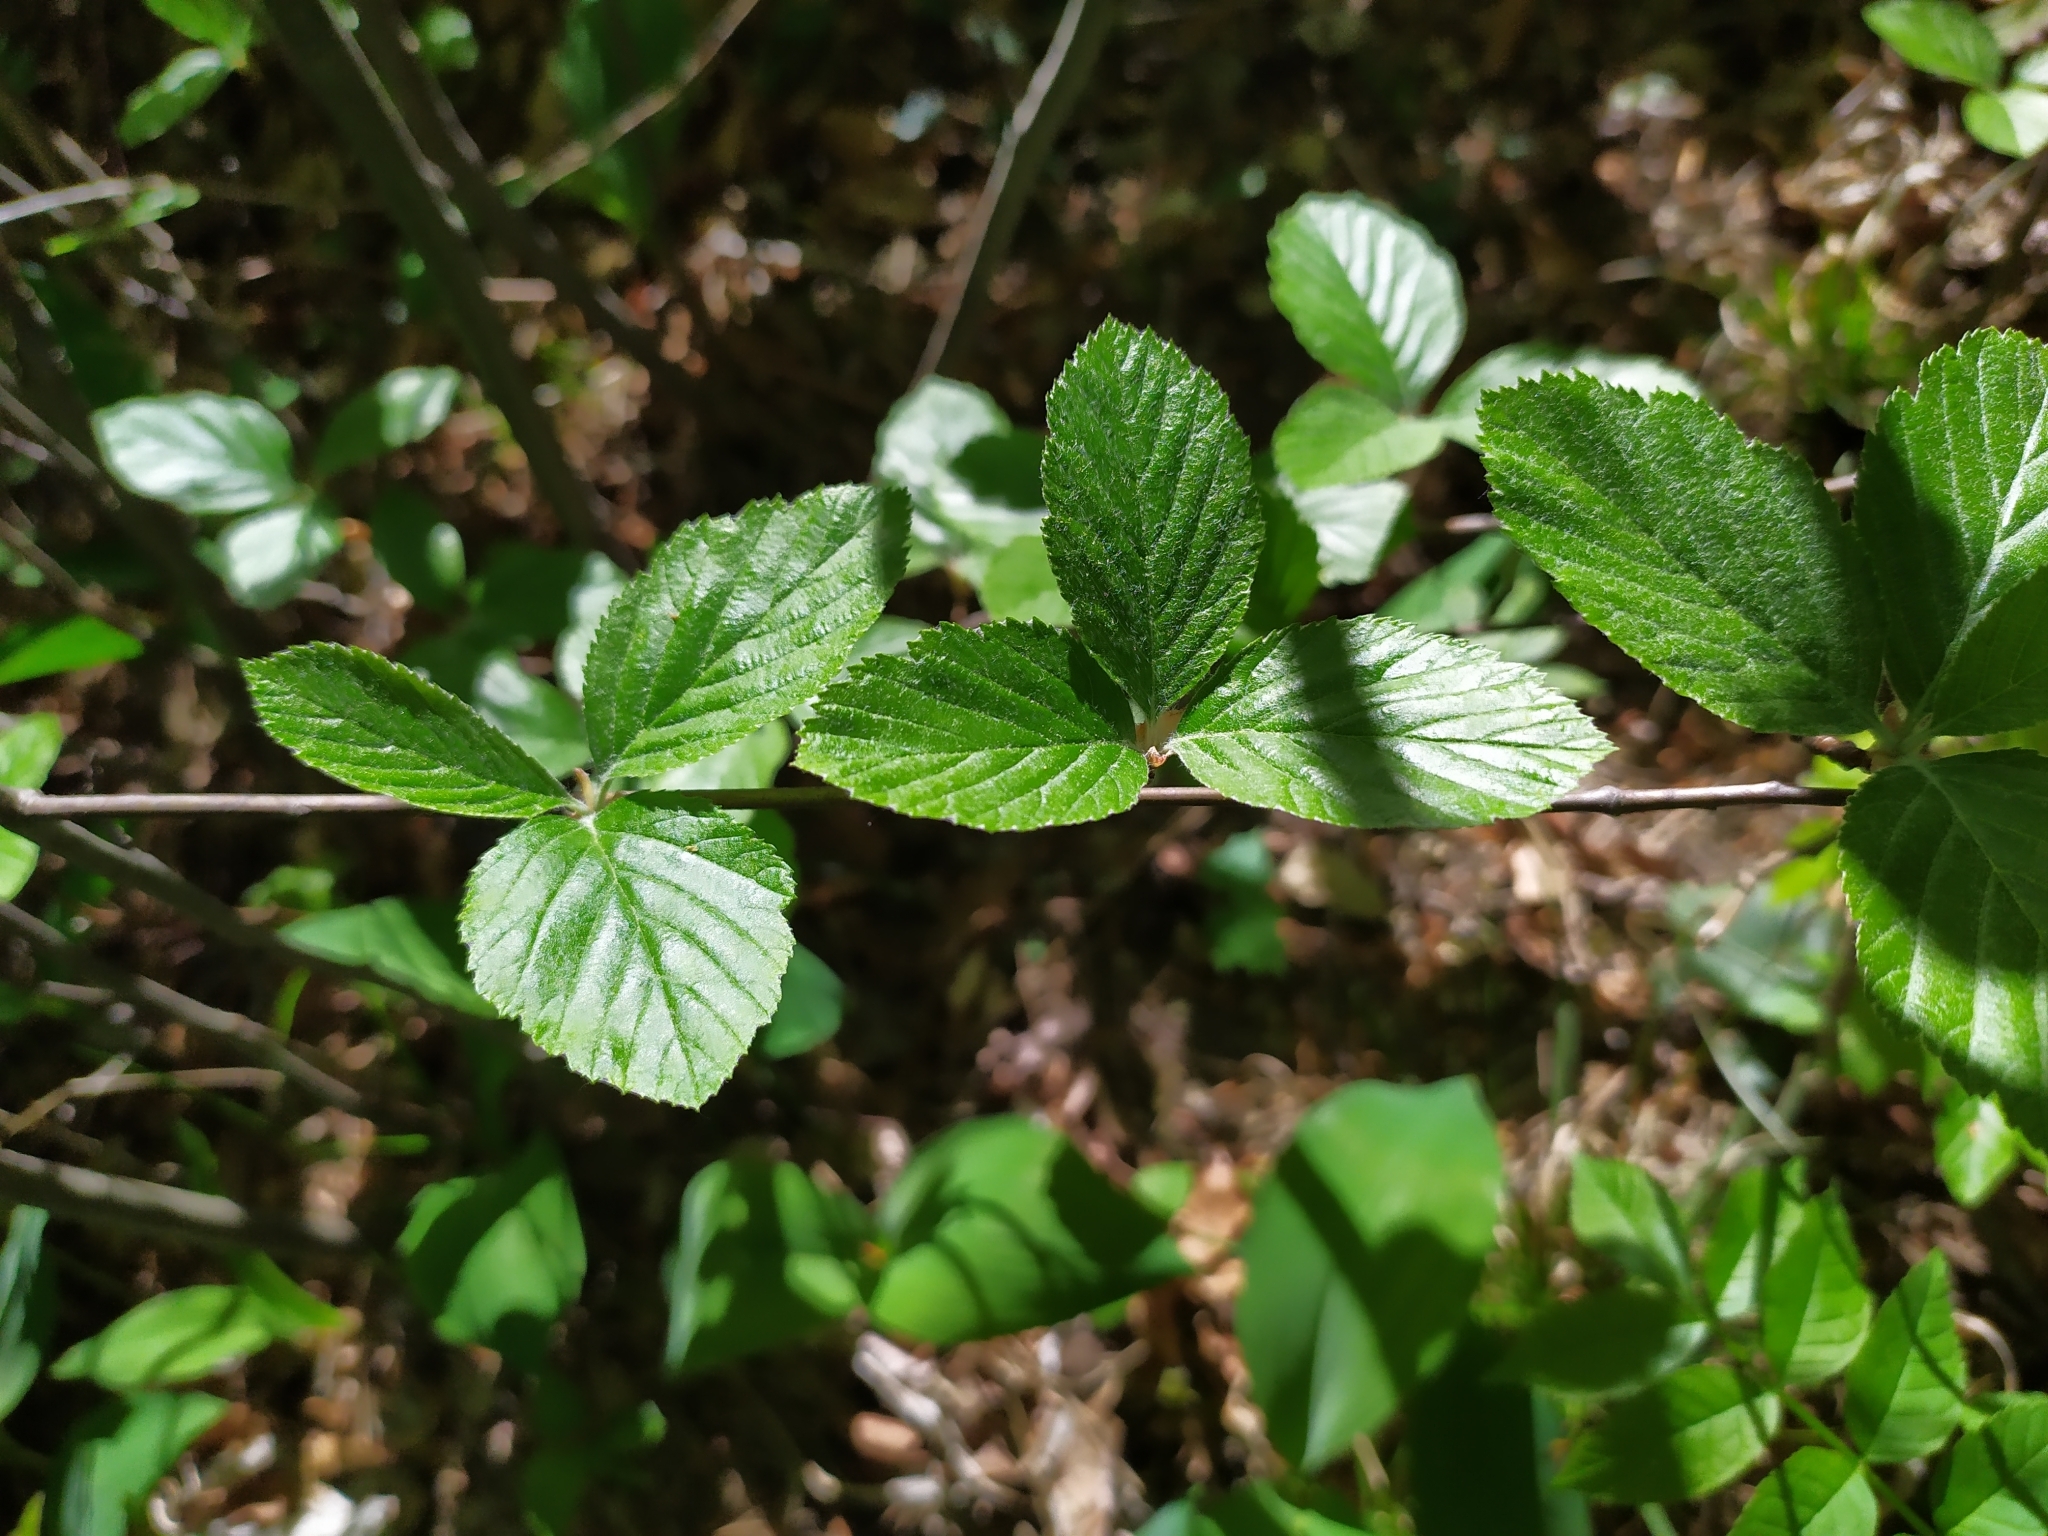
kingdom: Plantae
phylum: Tracheophyta
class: Magnoliopsida
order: Rosales
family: Rosaceae
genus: Aria
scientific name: Aria edulis
